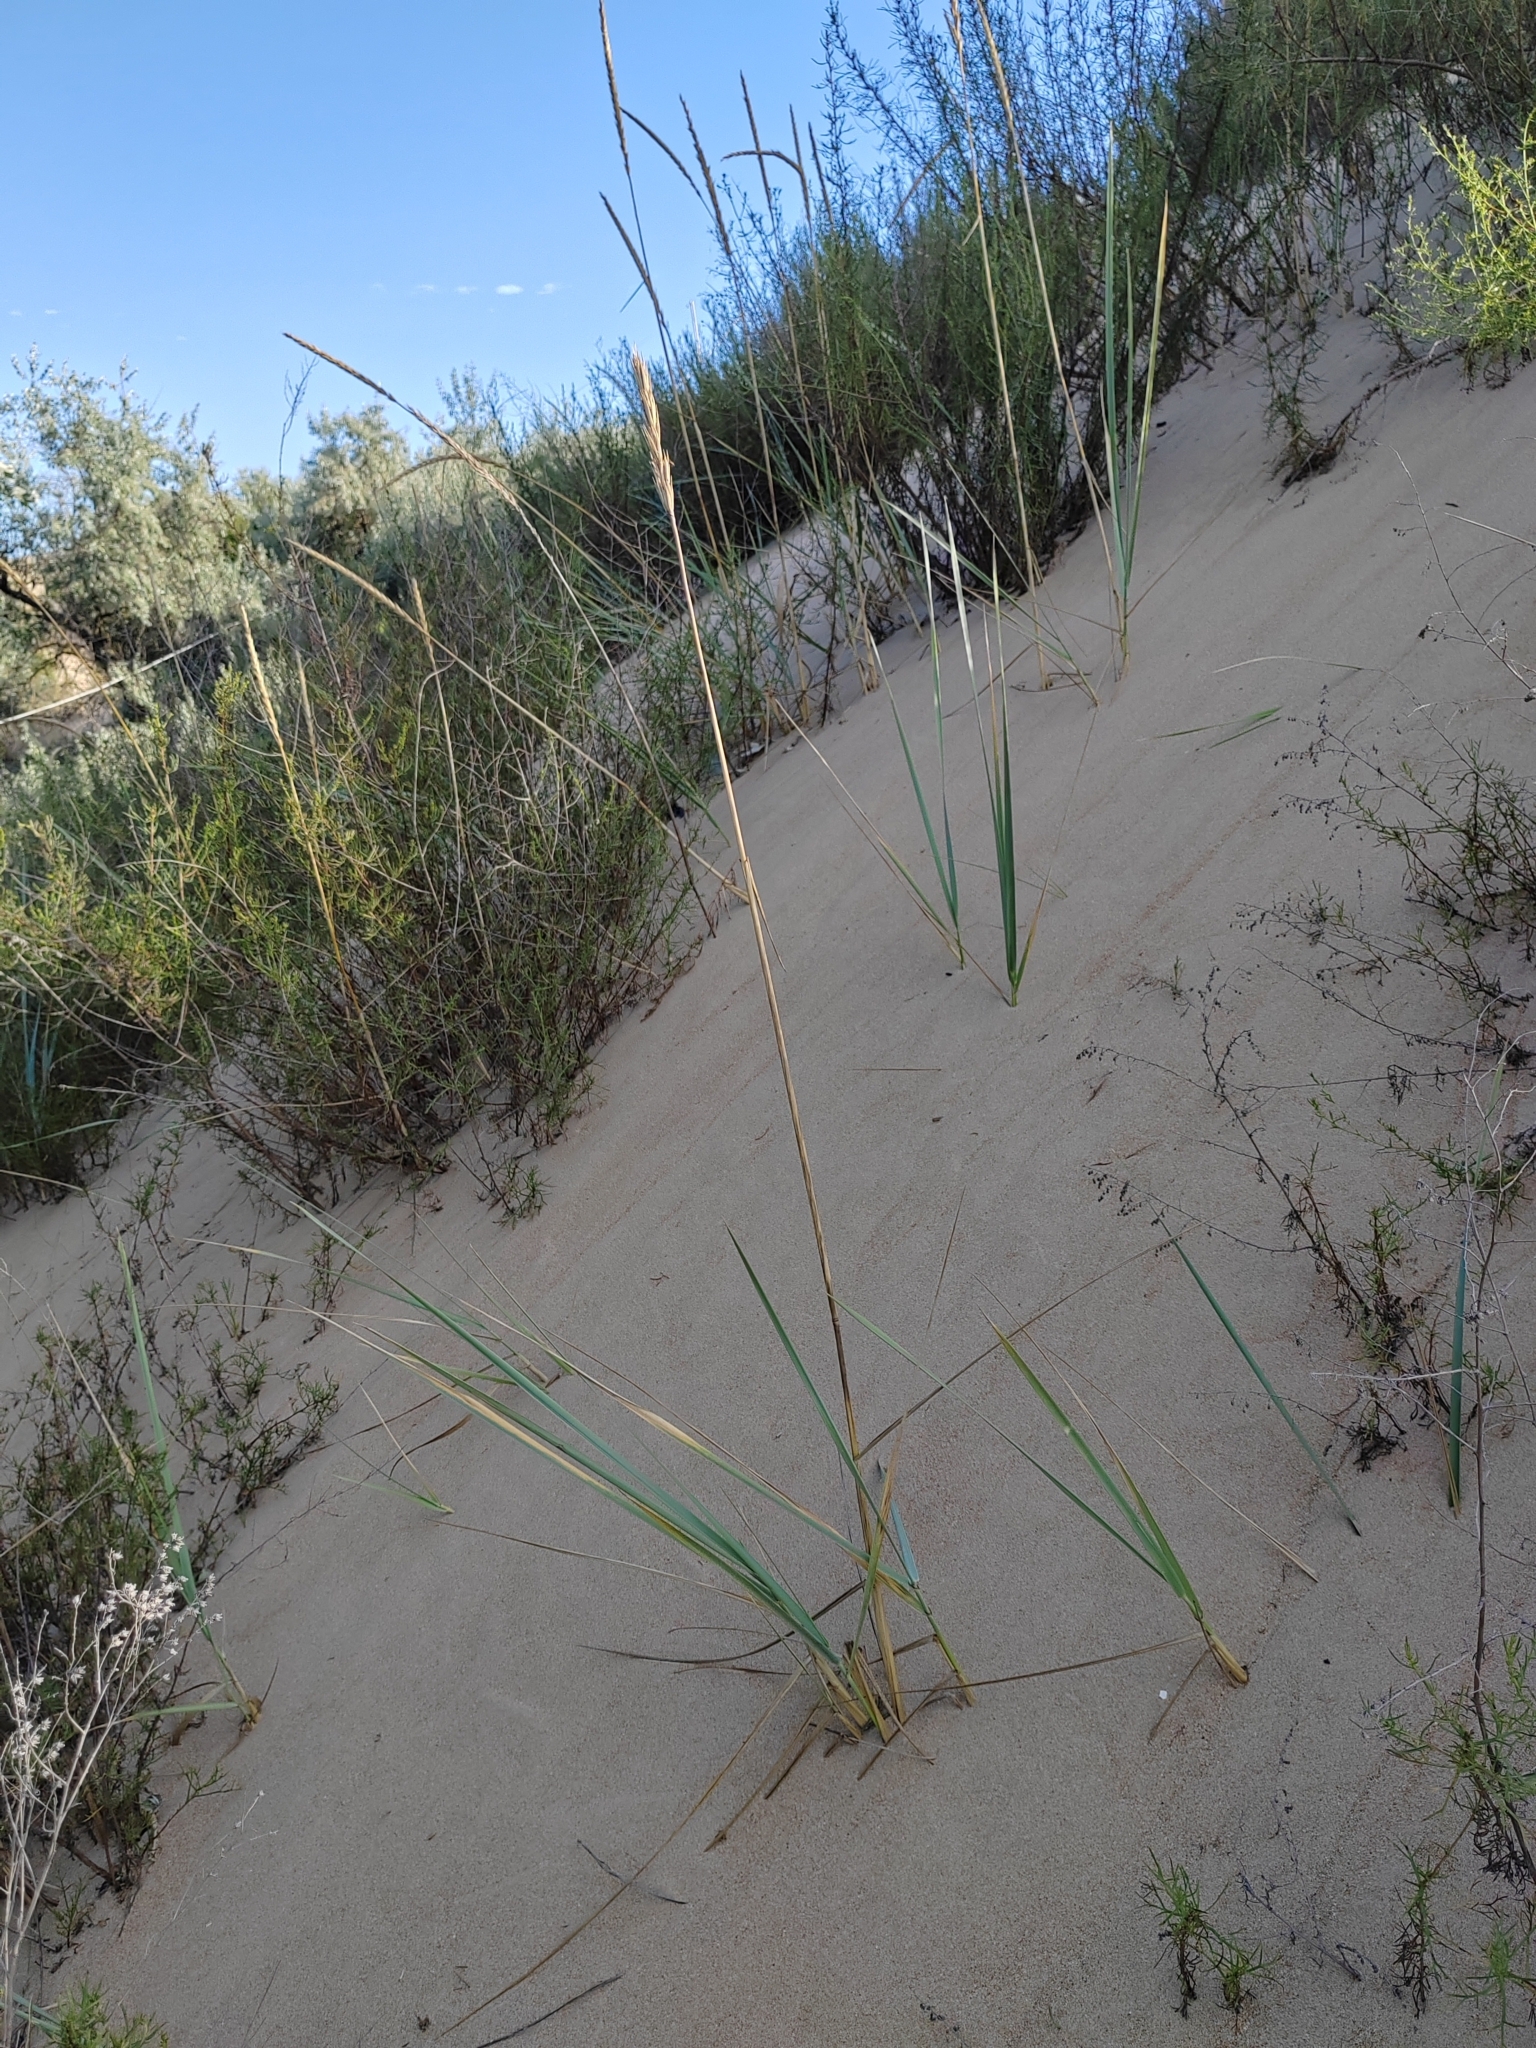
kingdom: Plantae
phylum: Tracheophyta
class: Liliopsida
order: Poales
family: Poaceae
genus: Leymus
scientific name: Leymus racemosus
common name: Mammoth wildrye
